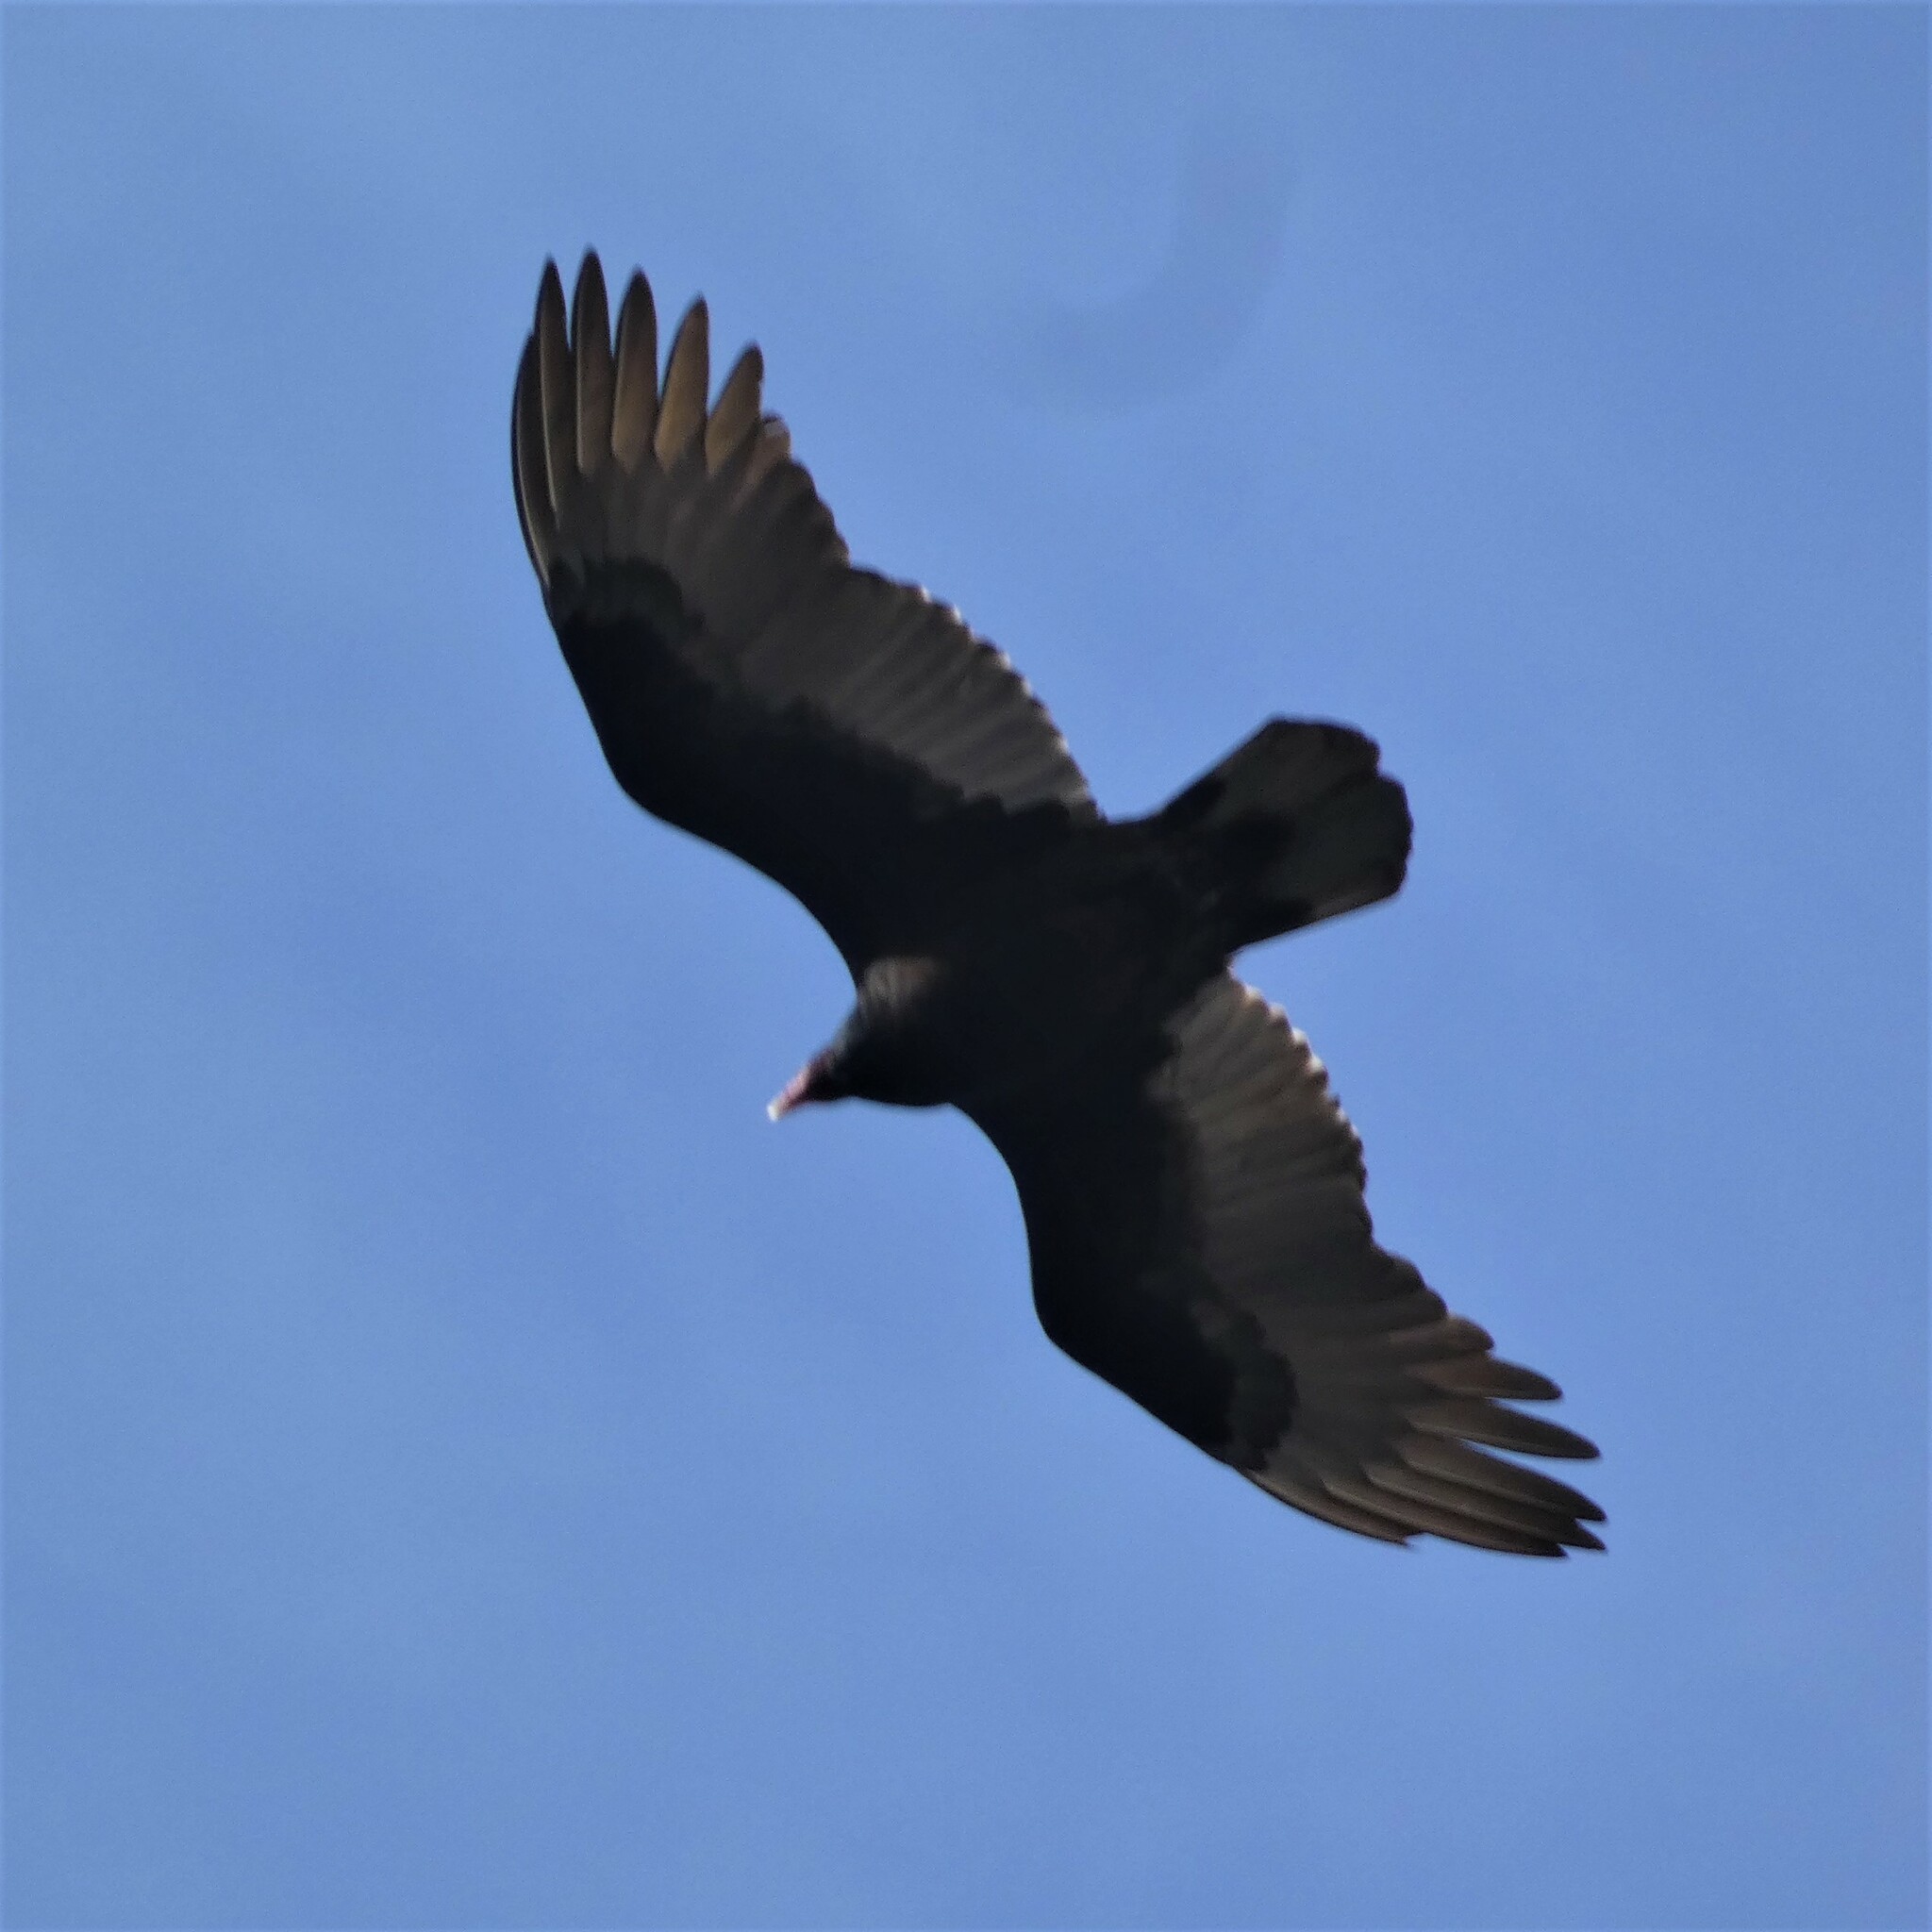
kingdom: Animalia
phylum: Chordata
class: Aves
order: Accipitriformes
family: Cathartidae
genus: Cathartes
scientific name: Cathartes aura
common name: Turkey vulture
